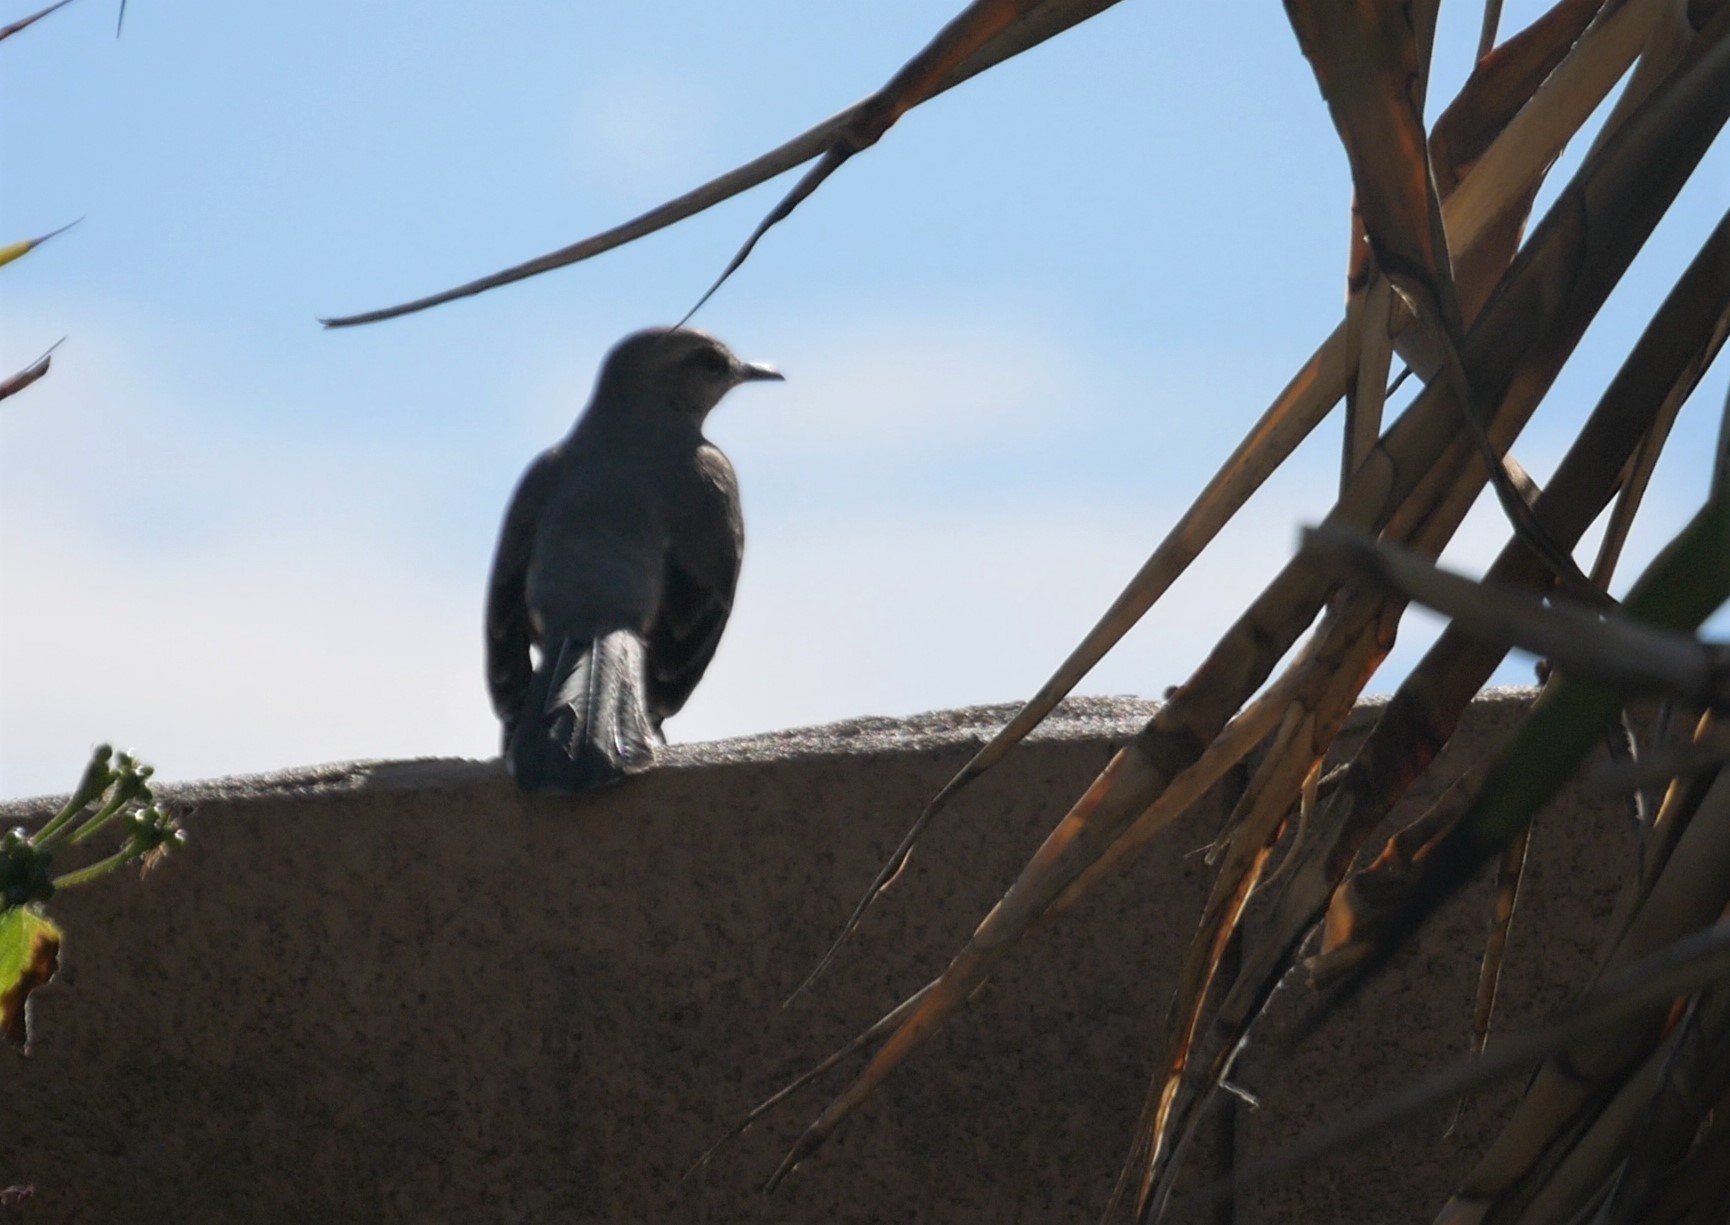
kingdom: Animalia
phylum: Chordata
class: Aves
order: Passeriformes
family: Mimidae
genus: Mimus
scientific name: Mimus polyglottos
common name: Northern mockingbird
